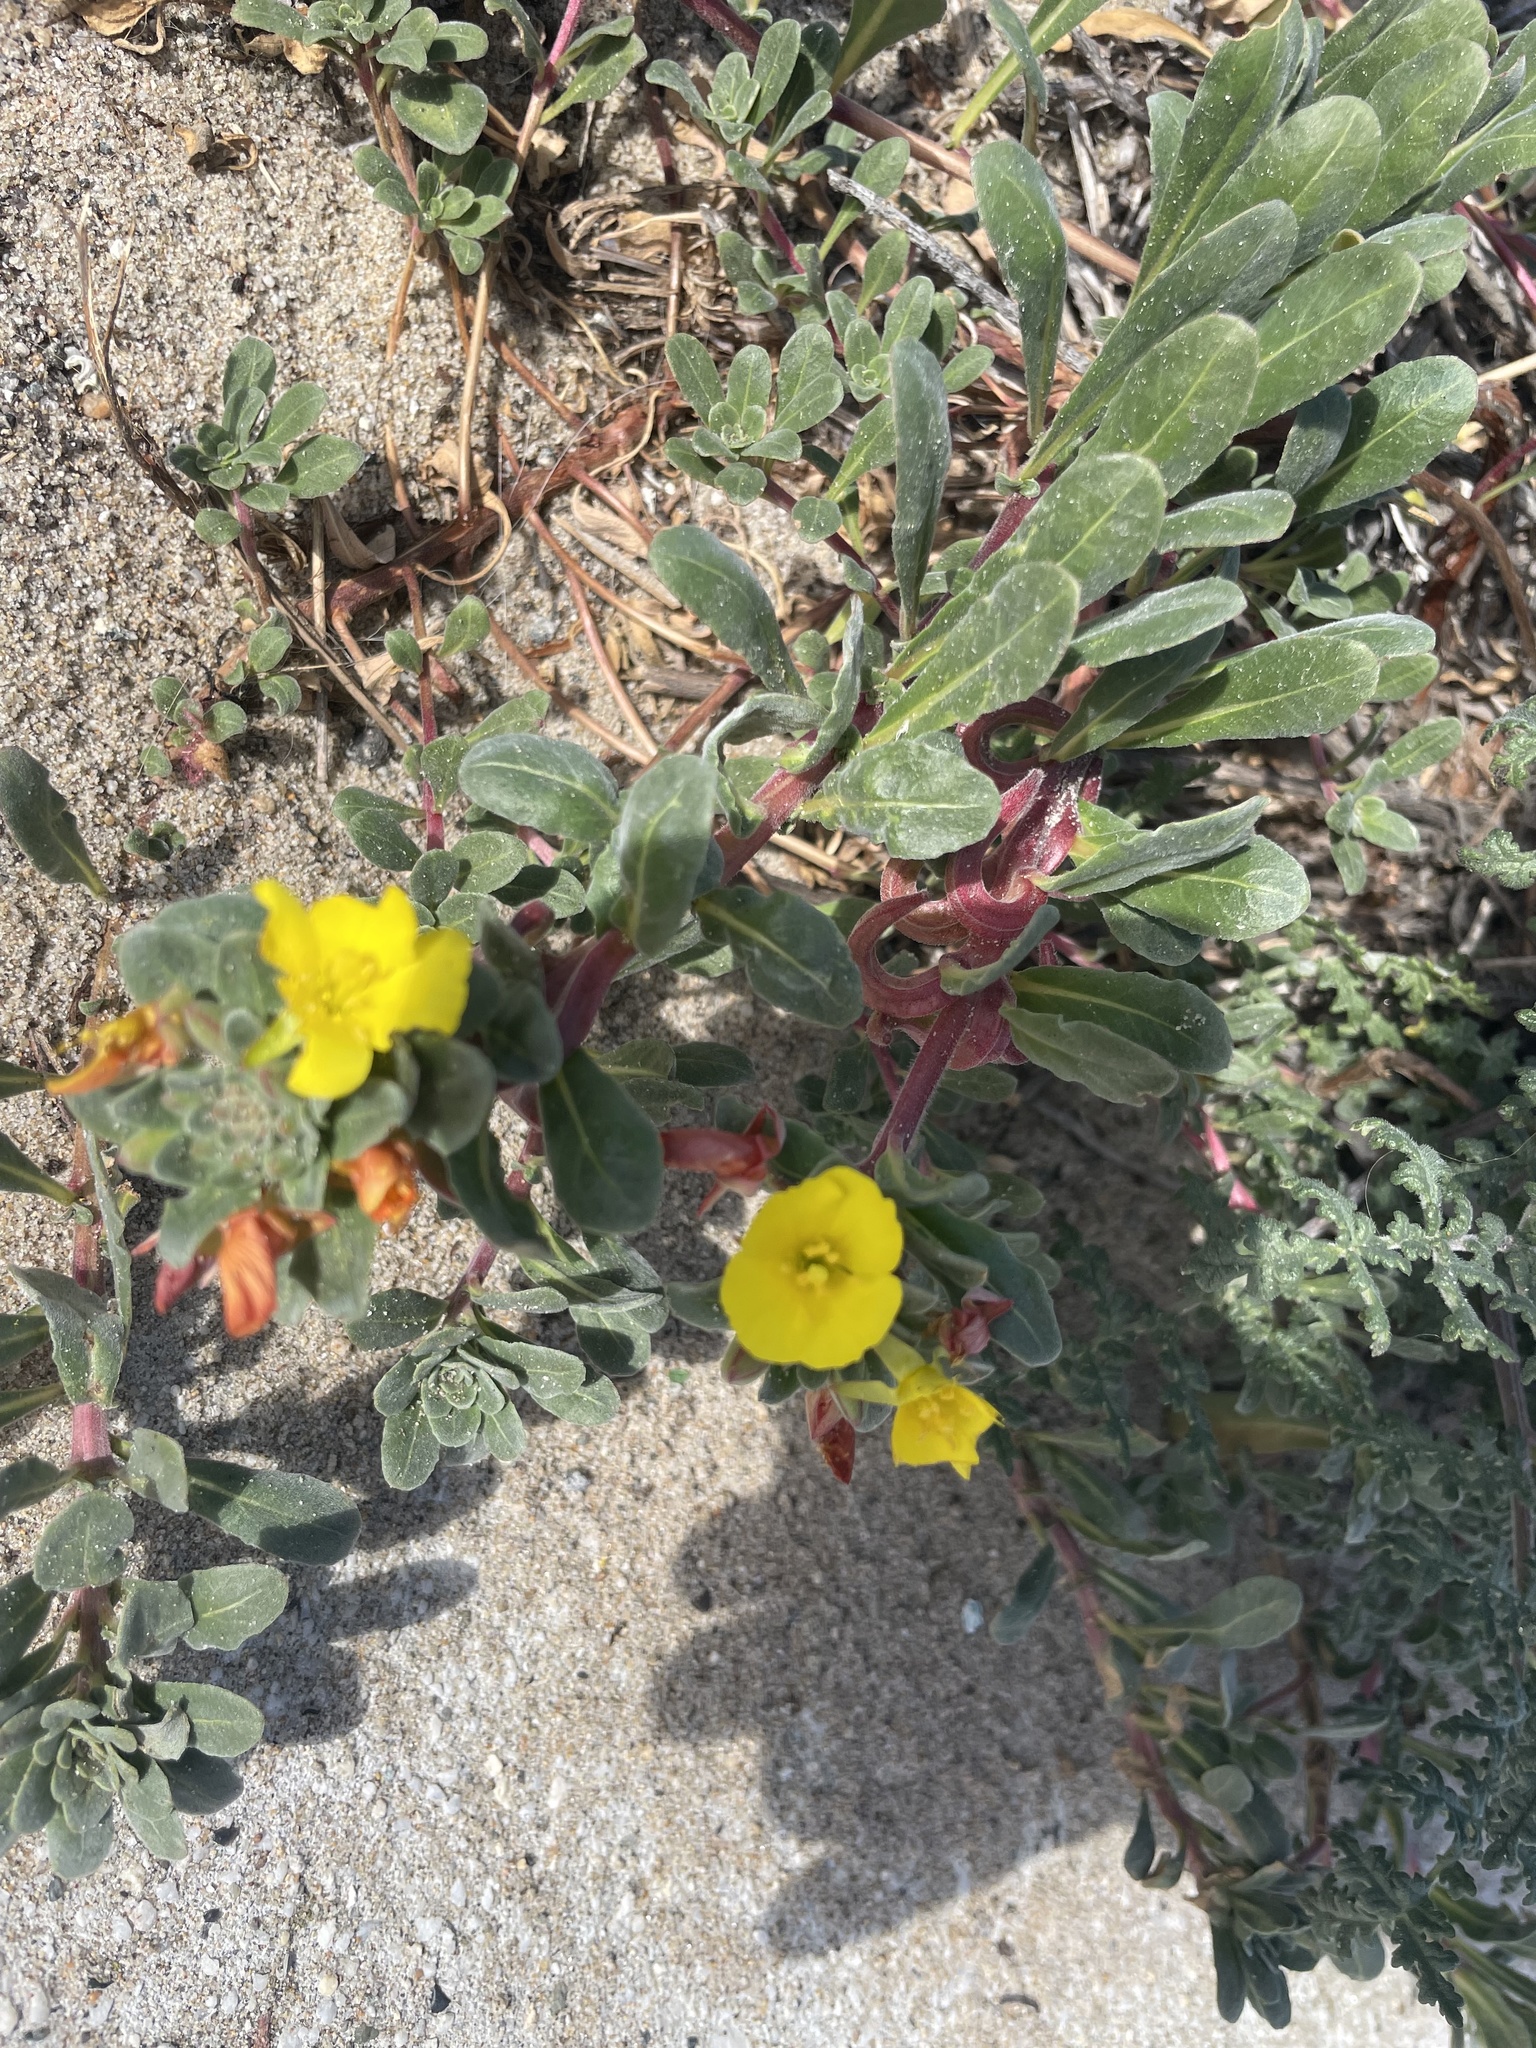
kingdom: Plantae
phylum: Tracheophyta
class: Magnoliopsida
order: Myrtales
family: Onagraceae
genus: Camissoniopsis
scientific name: Camissoniopsis cheiranthifolia
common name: Beach suncup
